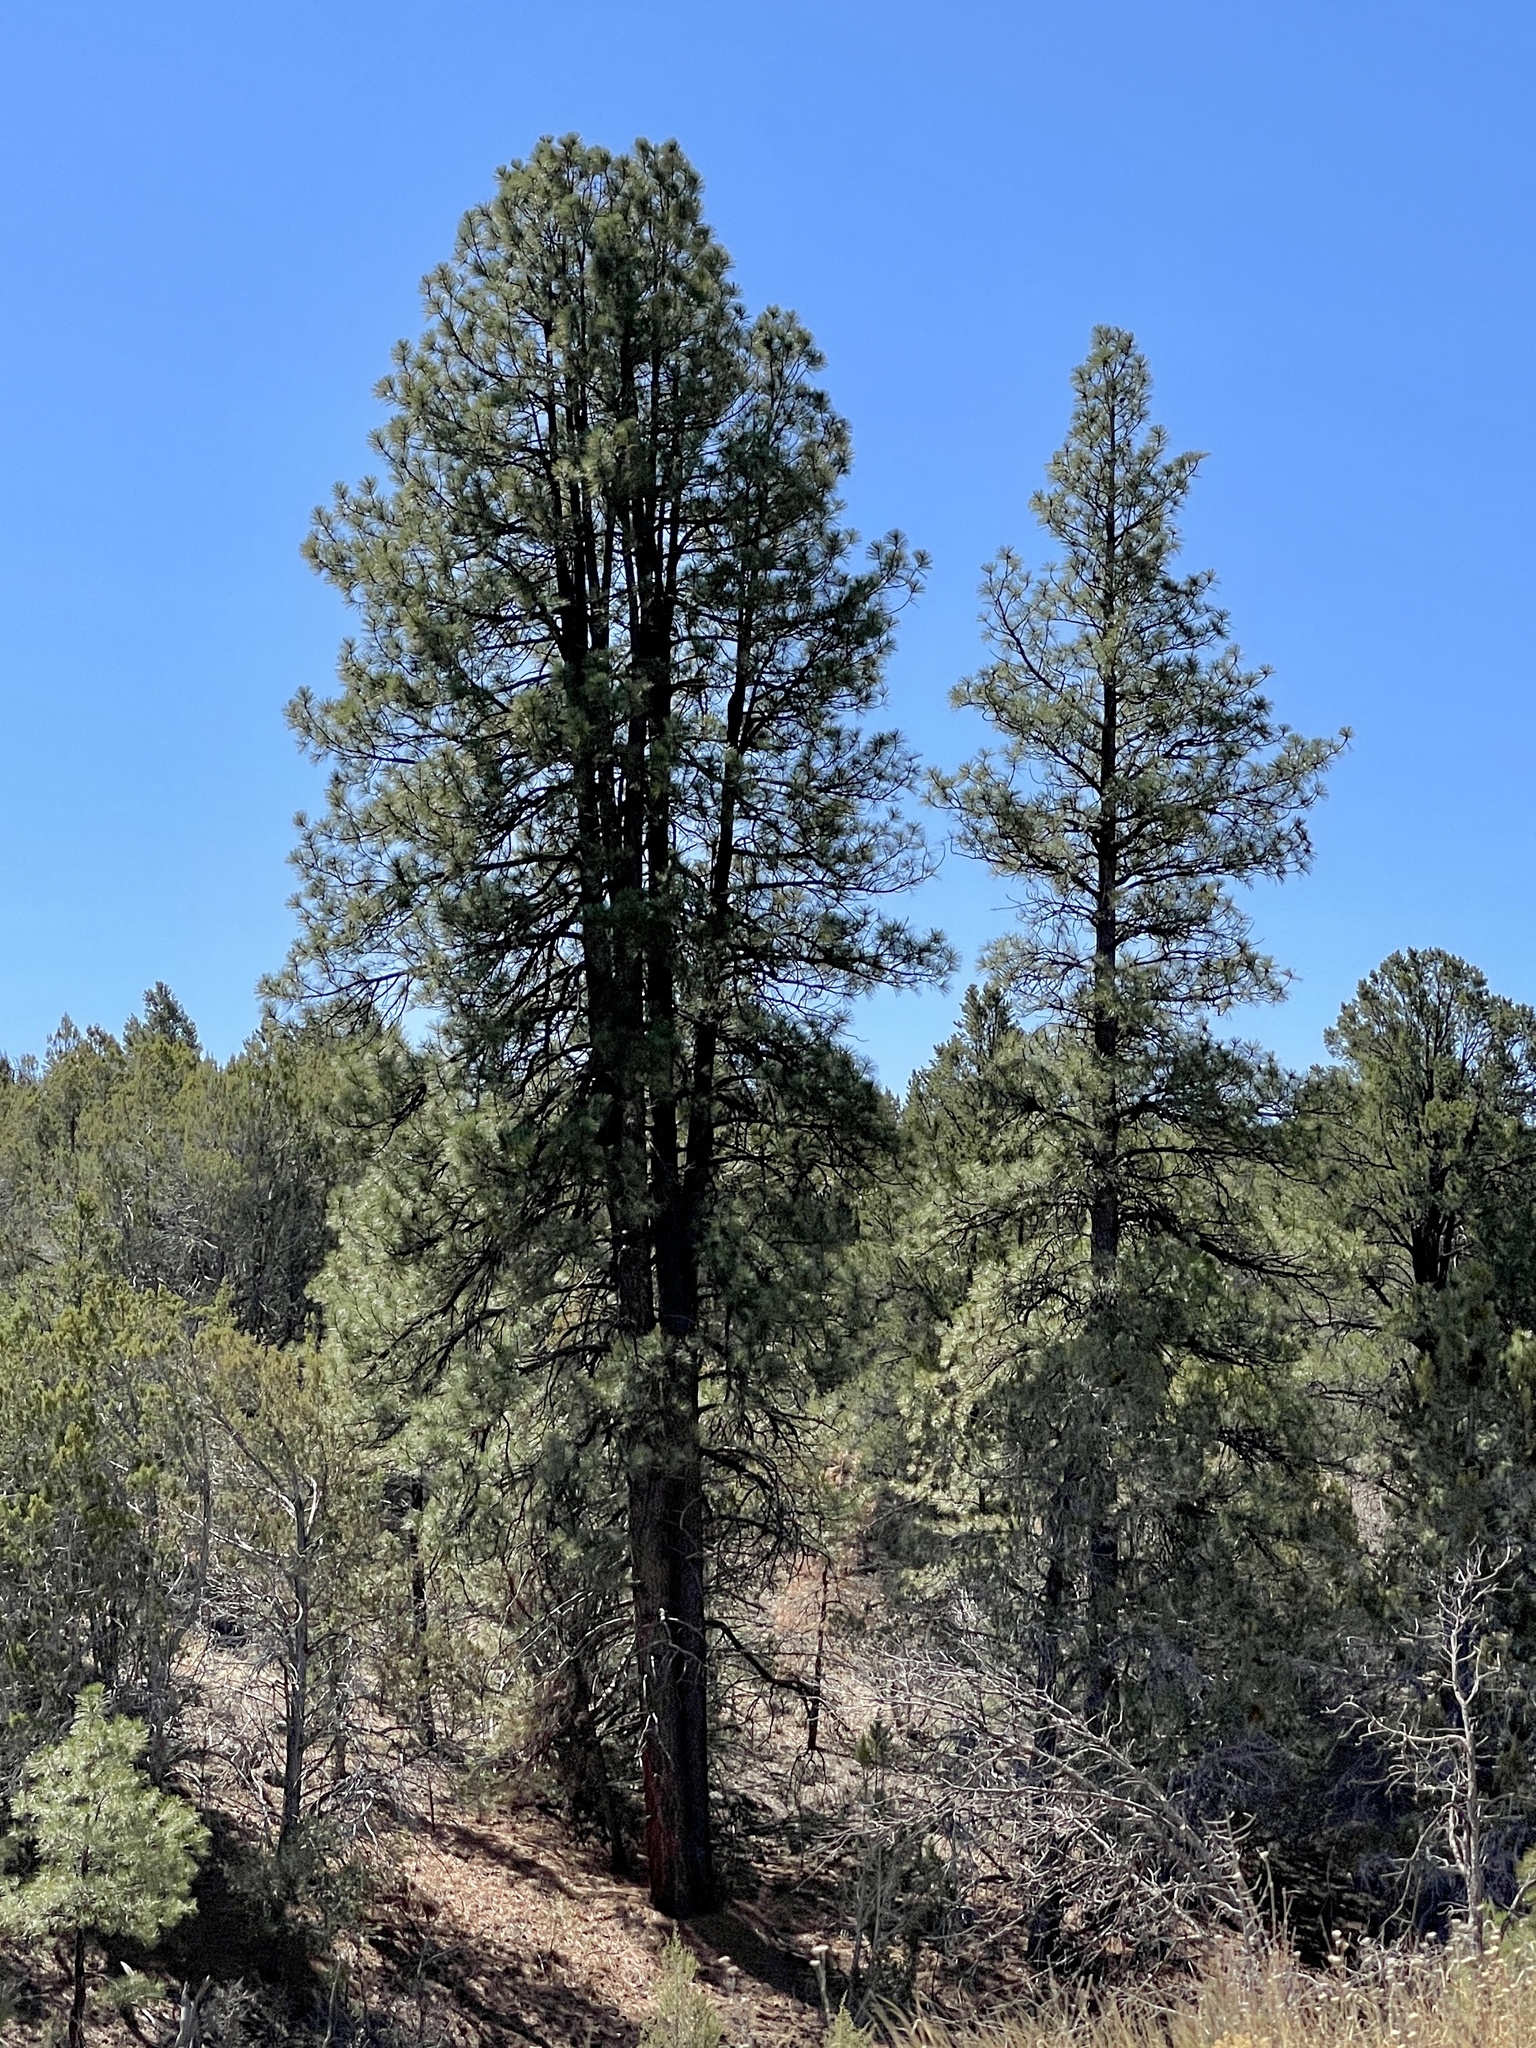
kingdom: Plantae
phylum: Tracheophyta
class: Pinopsida
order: Pinales
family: Pinaceae
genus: Pinus
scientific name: Pinus ponderosa
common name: Western yellow-pine
